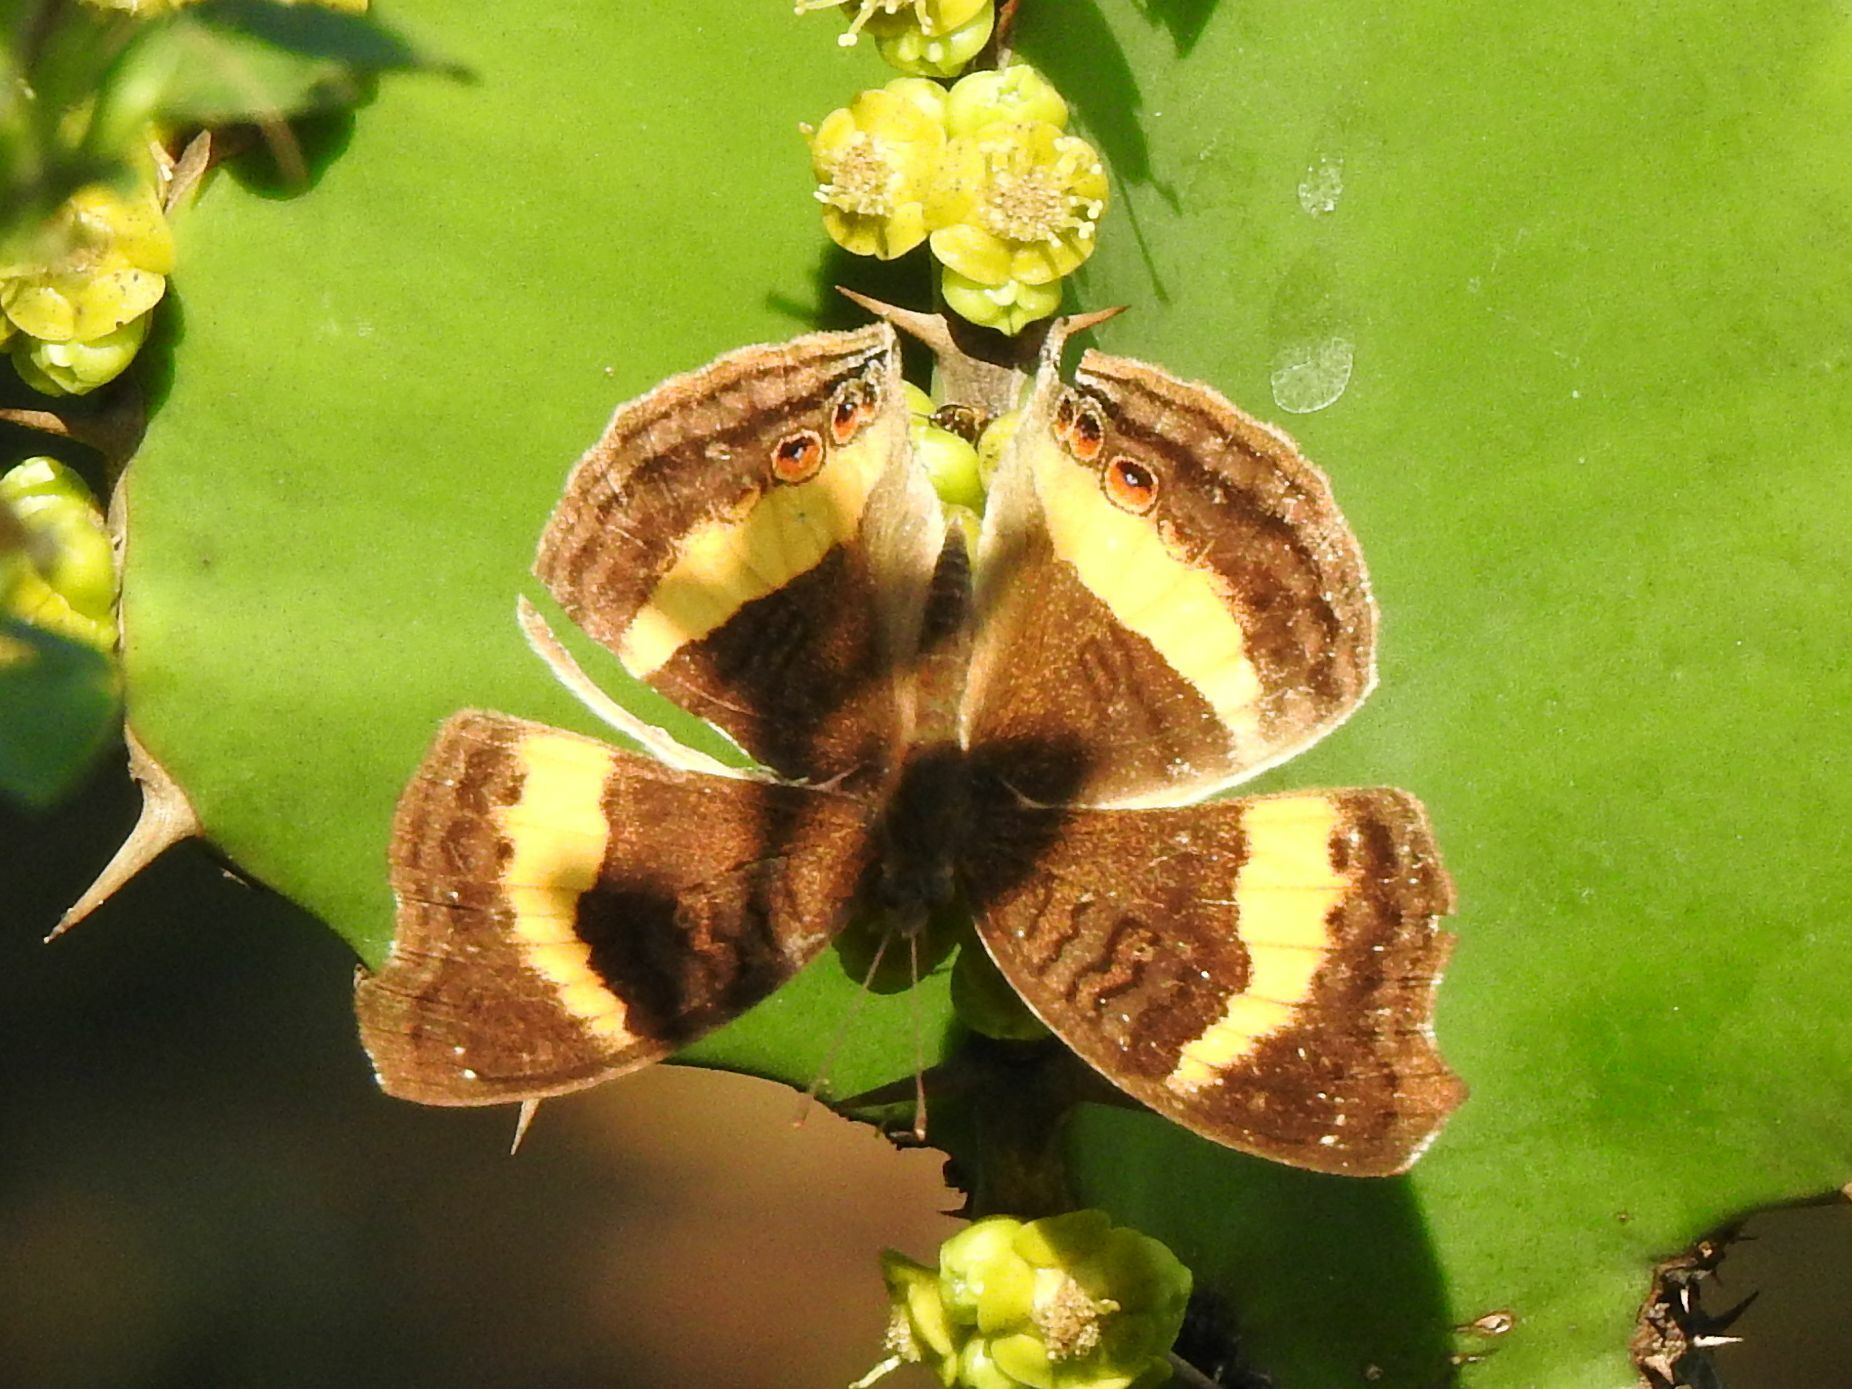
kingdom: Animalia
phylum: Arthropoda
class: Insecta
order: Lepidoptera
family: Nymphalidae
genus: Junonia
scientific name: Junonia terea
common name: Soldier pansy
